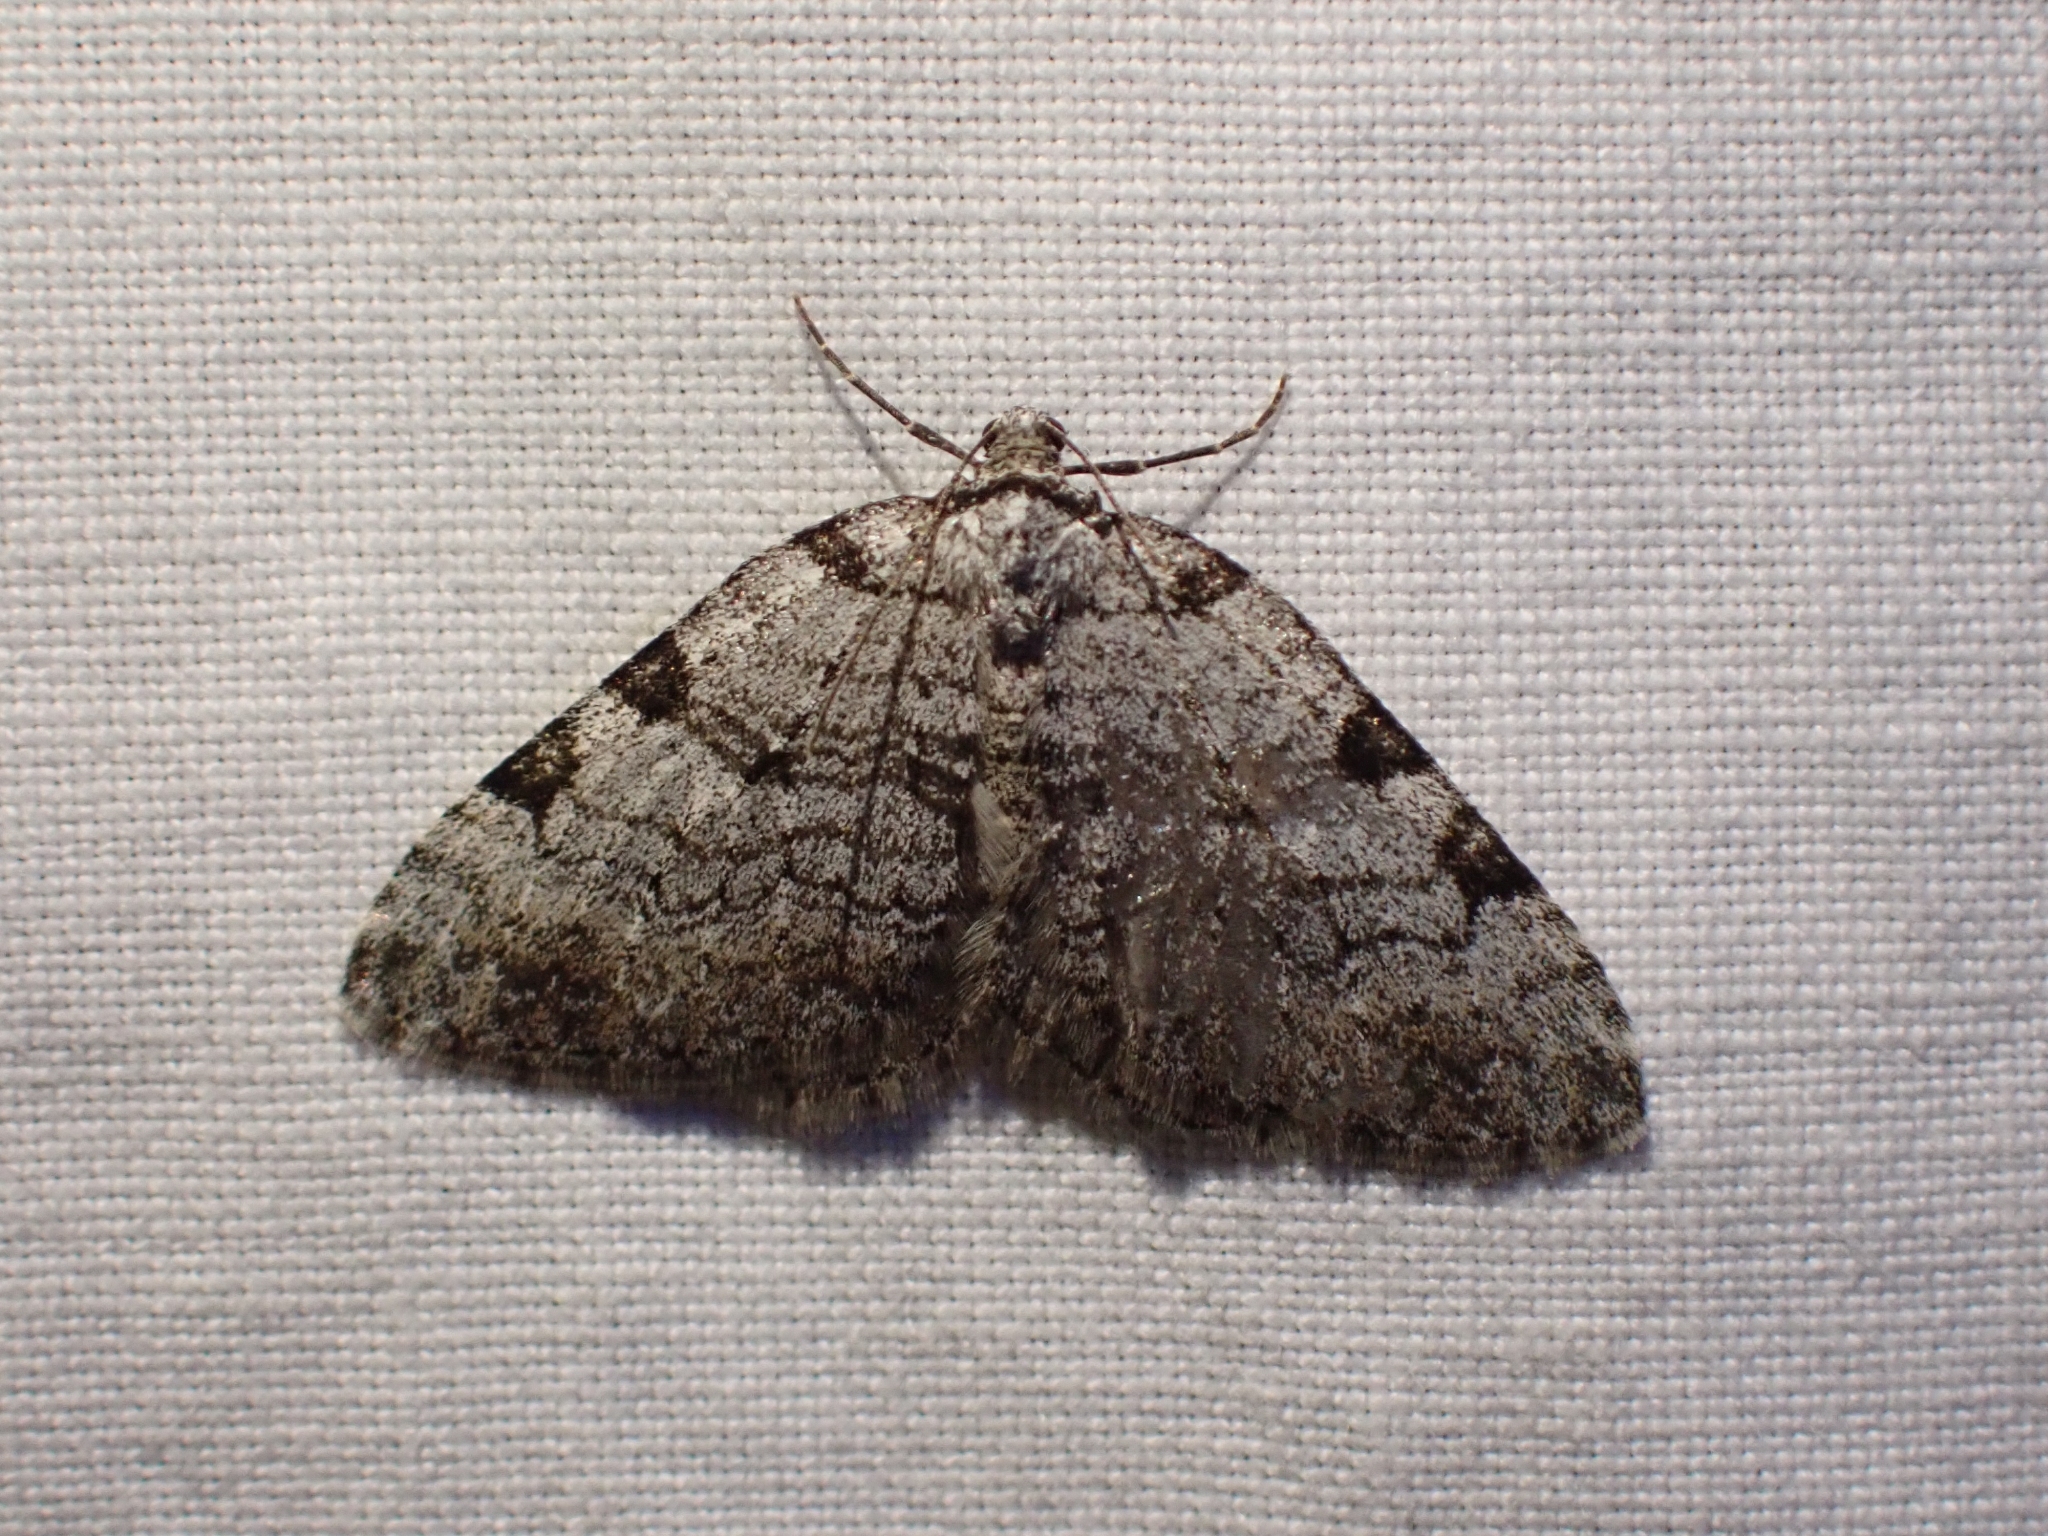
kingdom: Animalia
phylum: Arthropoda
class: Insecta
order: Lepidoptera
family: Geometridae
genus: Perizoma
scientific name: Perizoma costiguttata
